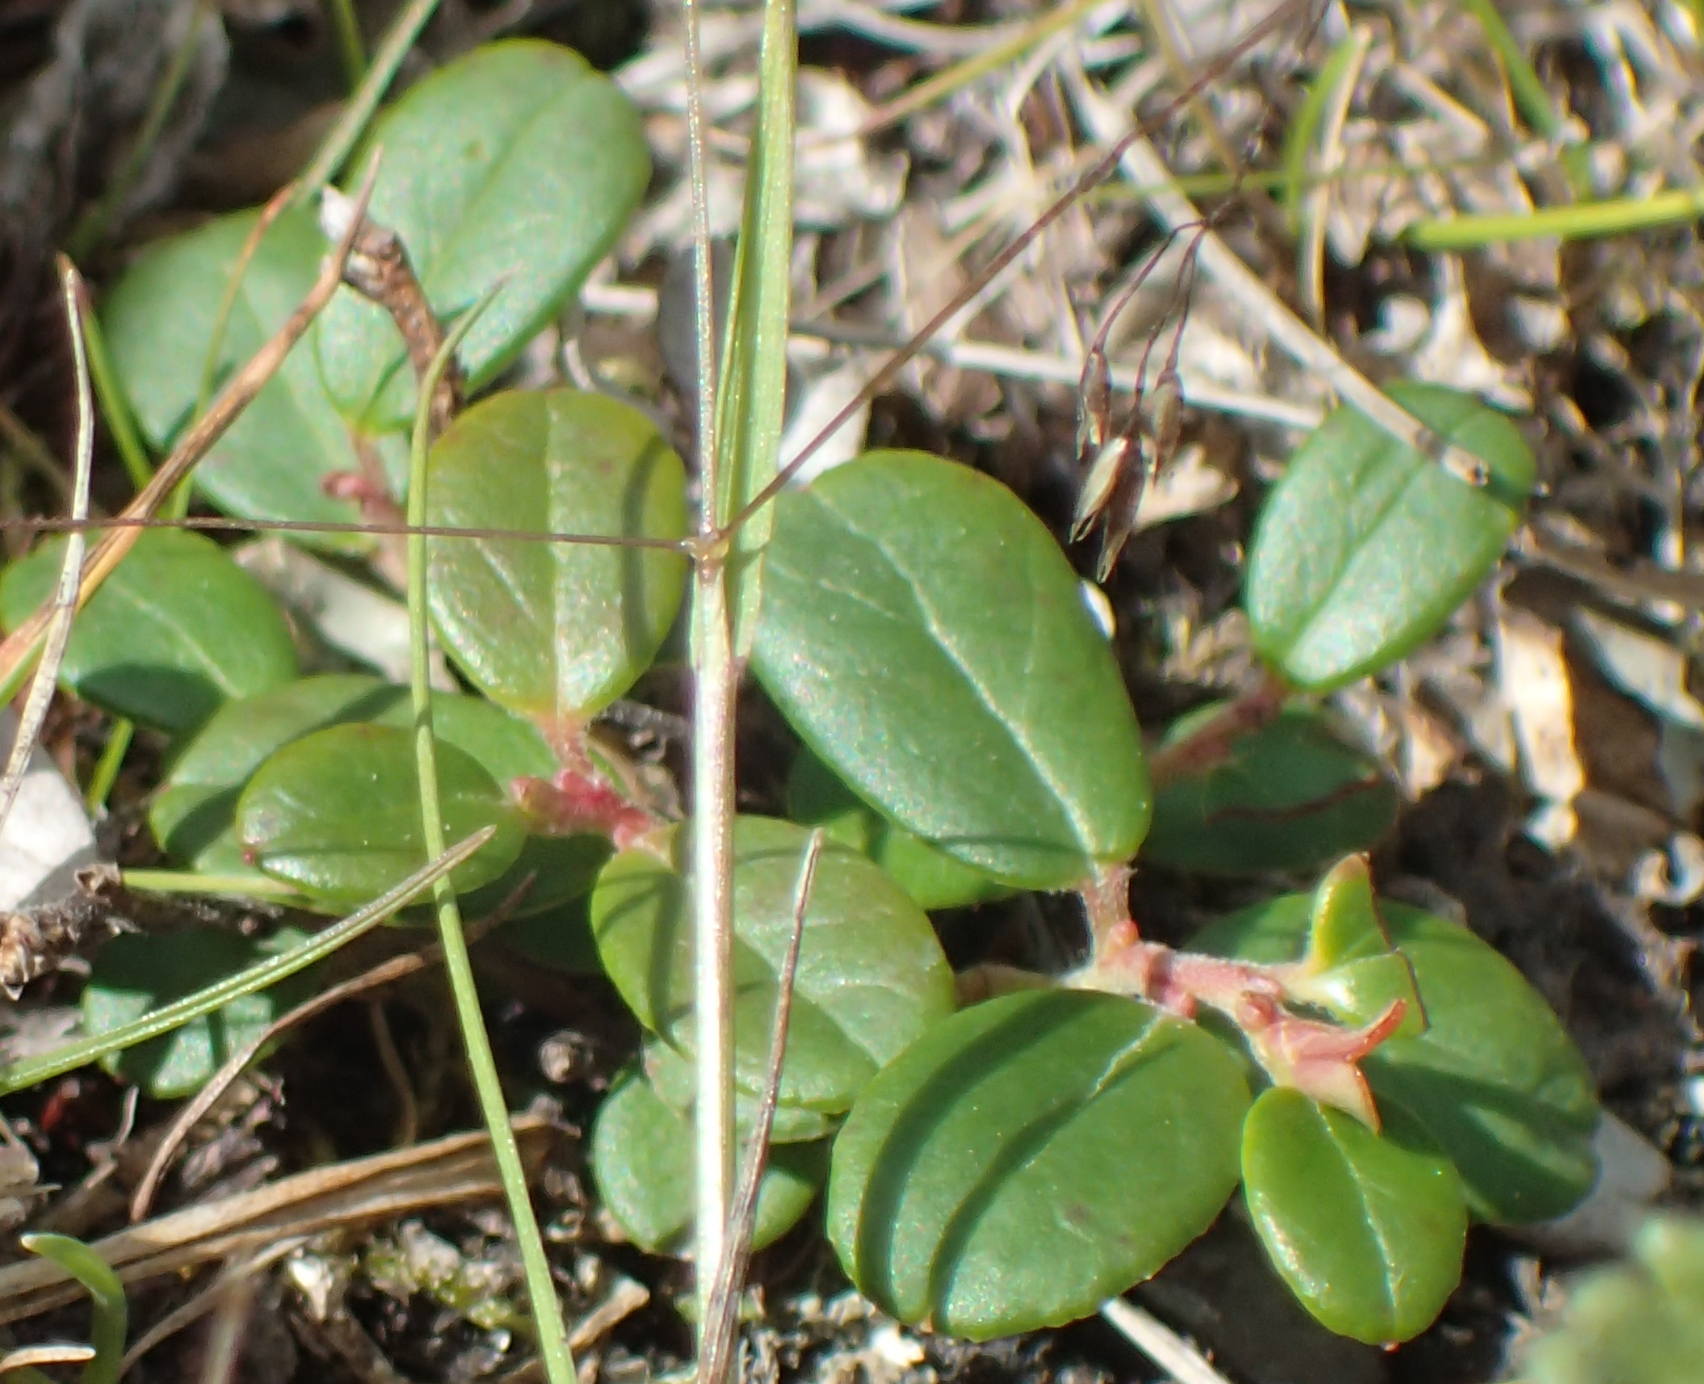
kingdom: Plantae
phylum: Tracheophyta
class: Magnoliopsida
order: Ericales
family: Ericaceae
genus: Vaccinium
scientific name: Vaccinium vitis-idaea
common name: Cowberry
